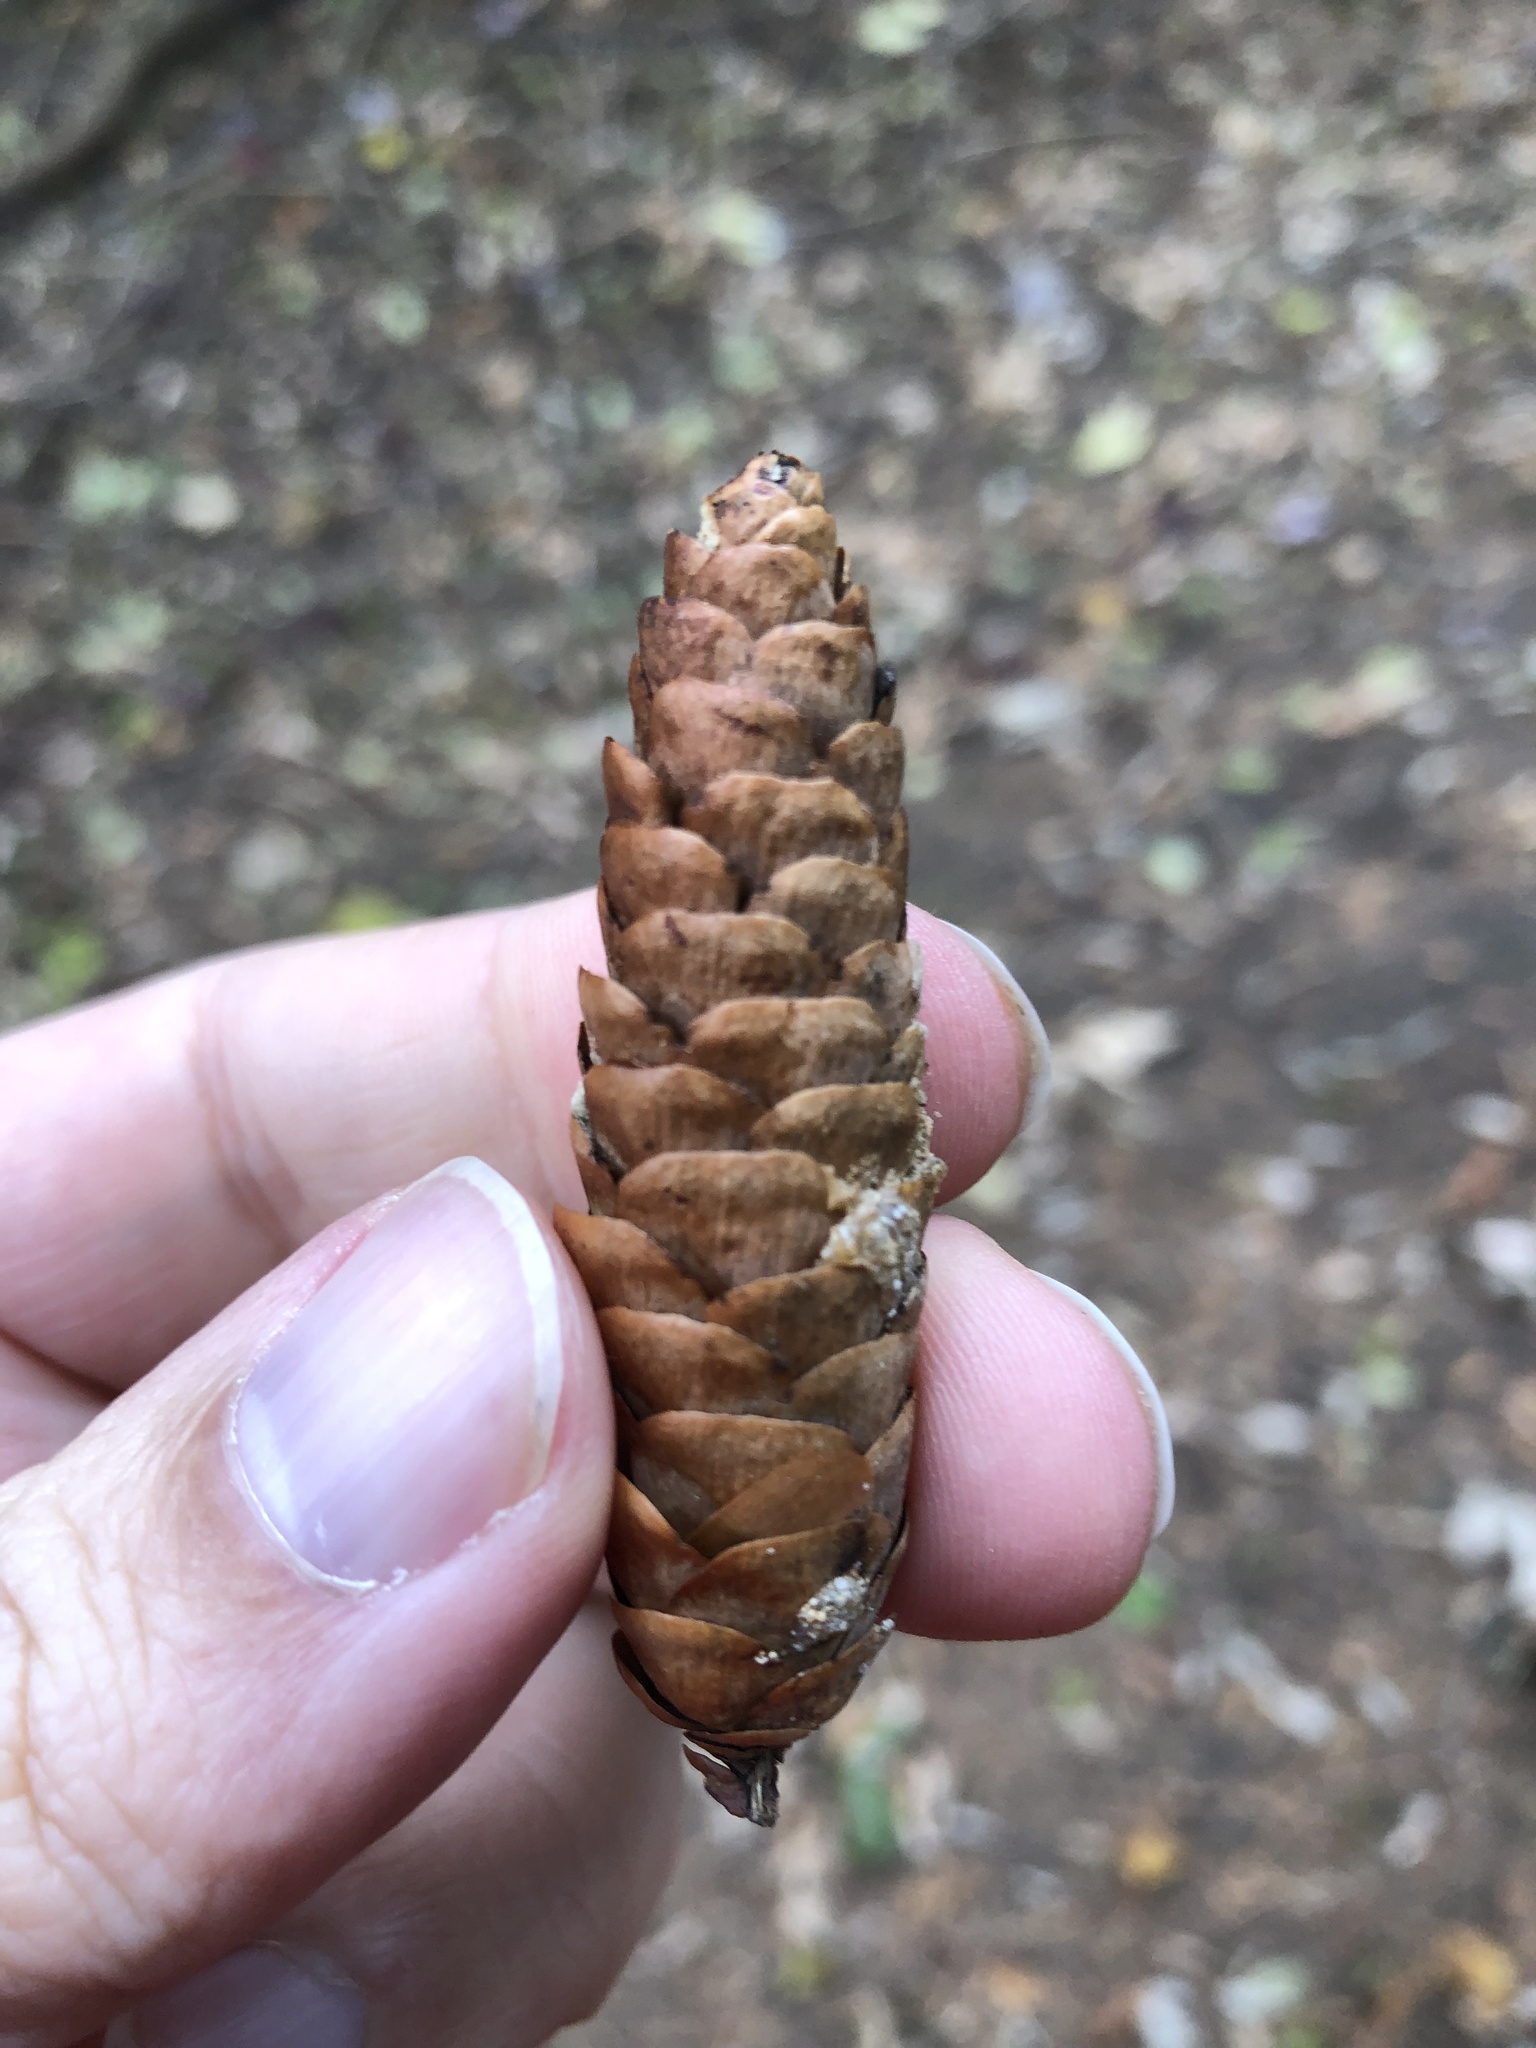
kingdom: Plantae
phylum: Tracheophyta
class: Pinopsida
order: Pinales
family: Pinaceae
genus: Picea
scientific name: Picea glauca
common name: White spruce
